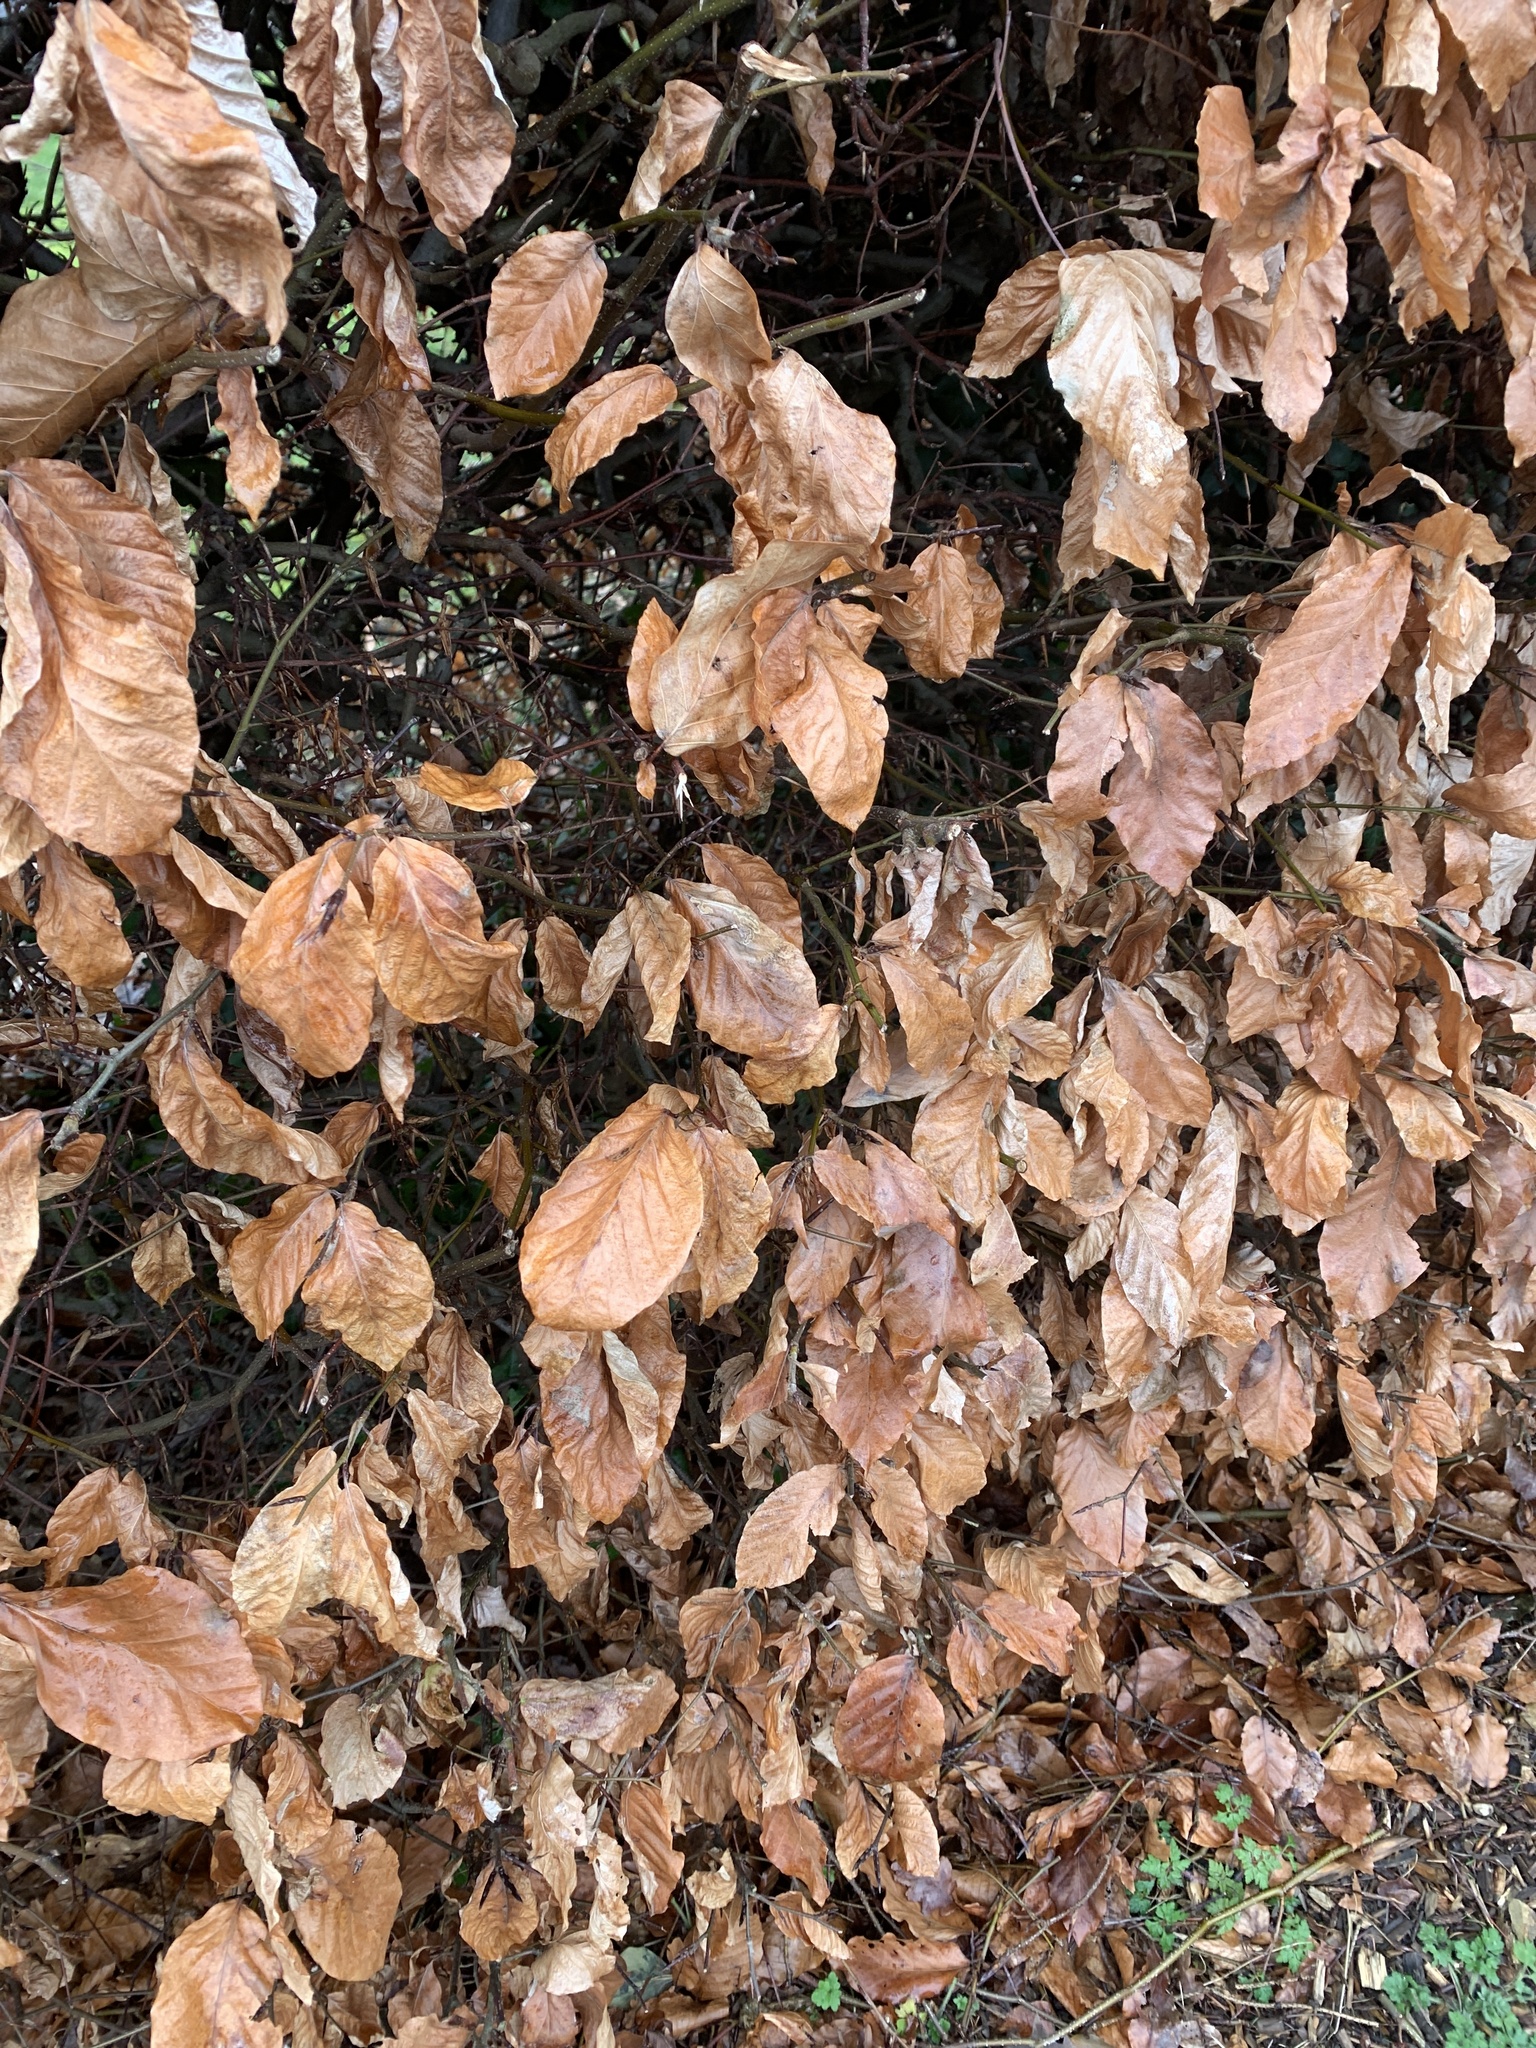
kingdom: Plantae
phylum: Tracheophyta
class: Magnoliopsida
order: Fagales
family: Fagaceae
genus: Fagus
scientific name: Fagus sylvatica
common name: Beech
